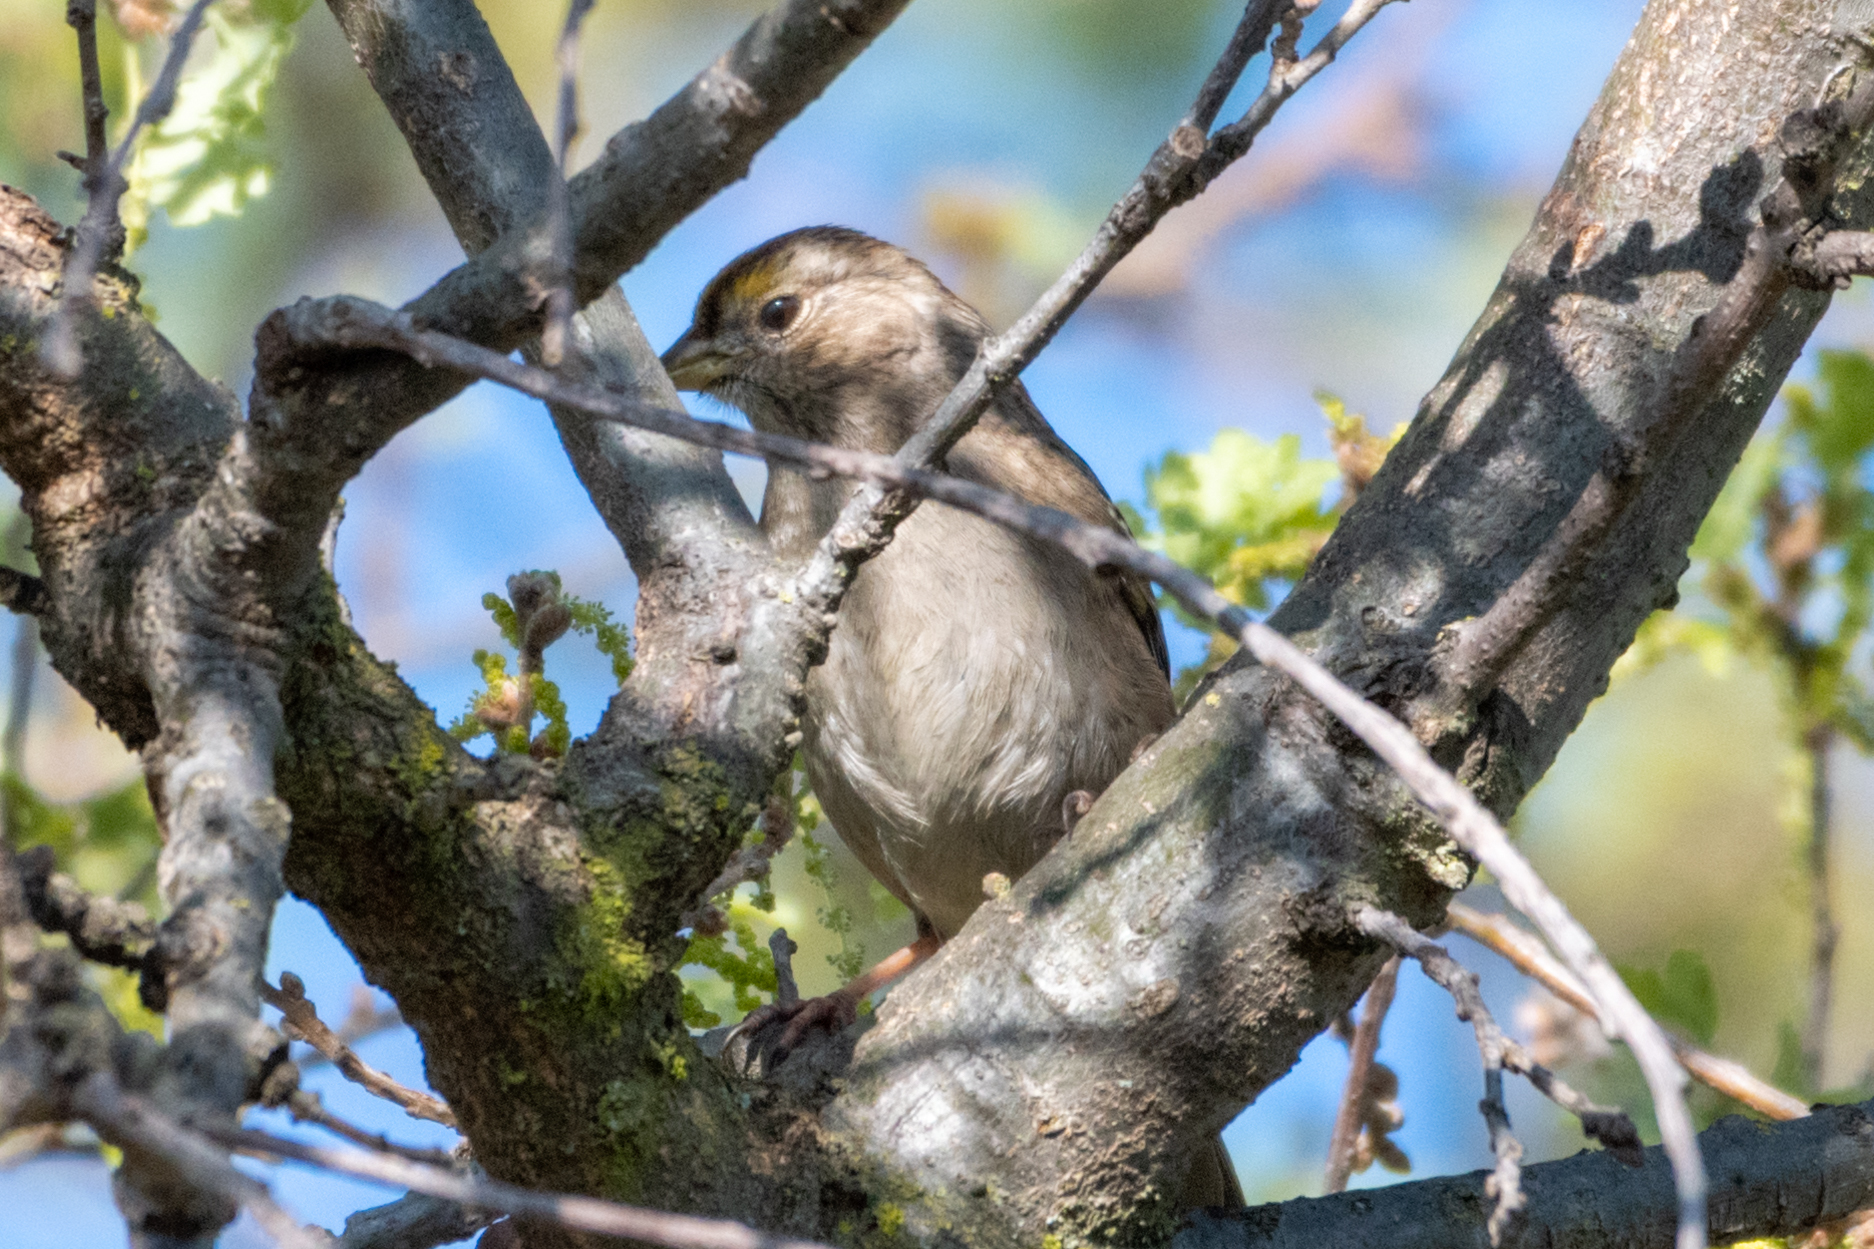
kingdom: Animalia
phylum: Chordata
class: Aves
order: Passeriformes
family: Passerellidae
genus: Zonotrichia
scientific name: Zonotrichia atricapilla
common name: Golden-crowned sparrow
